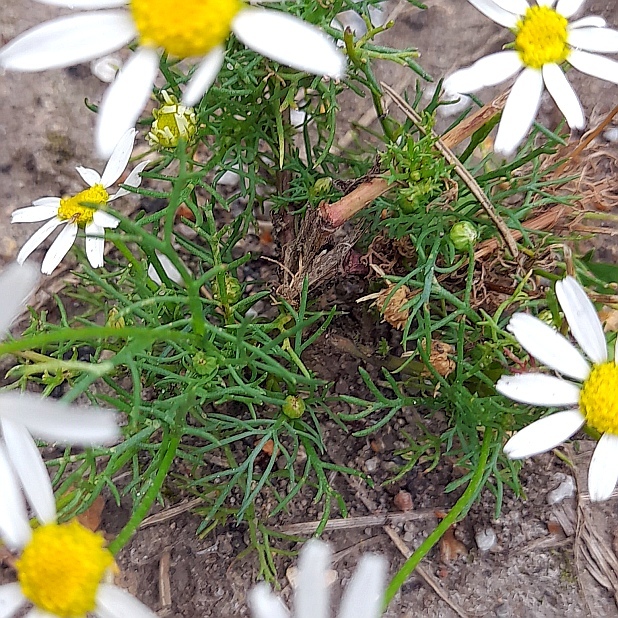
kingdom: Plantae
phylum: Tracheophyta
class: Magnoliopsida
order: Asterales
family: Asteraceae
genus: Tripleurospermum
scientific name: Tripleurospermum inodorum
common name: Scentless mayweed
